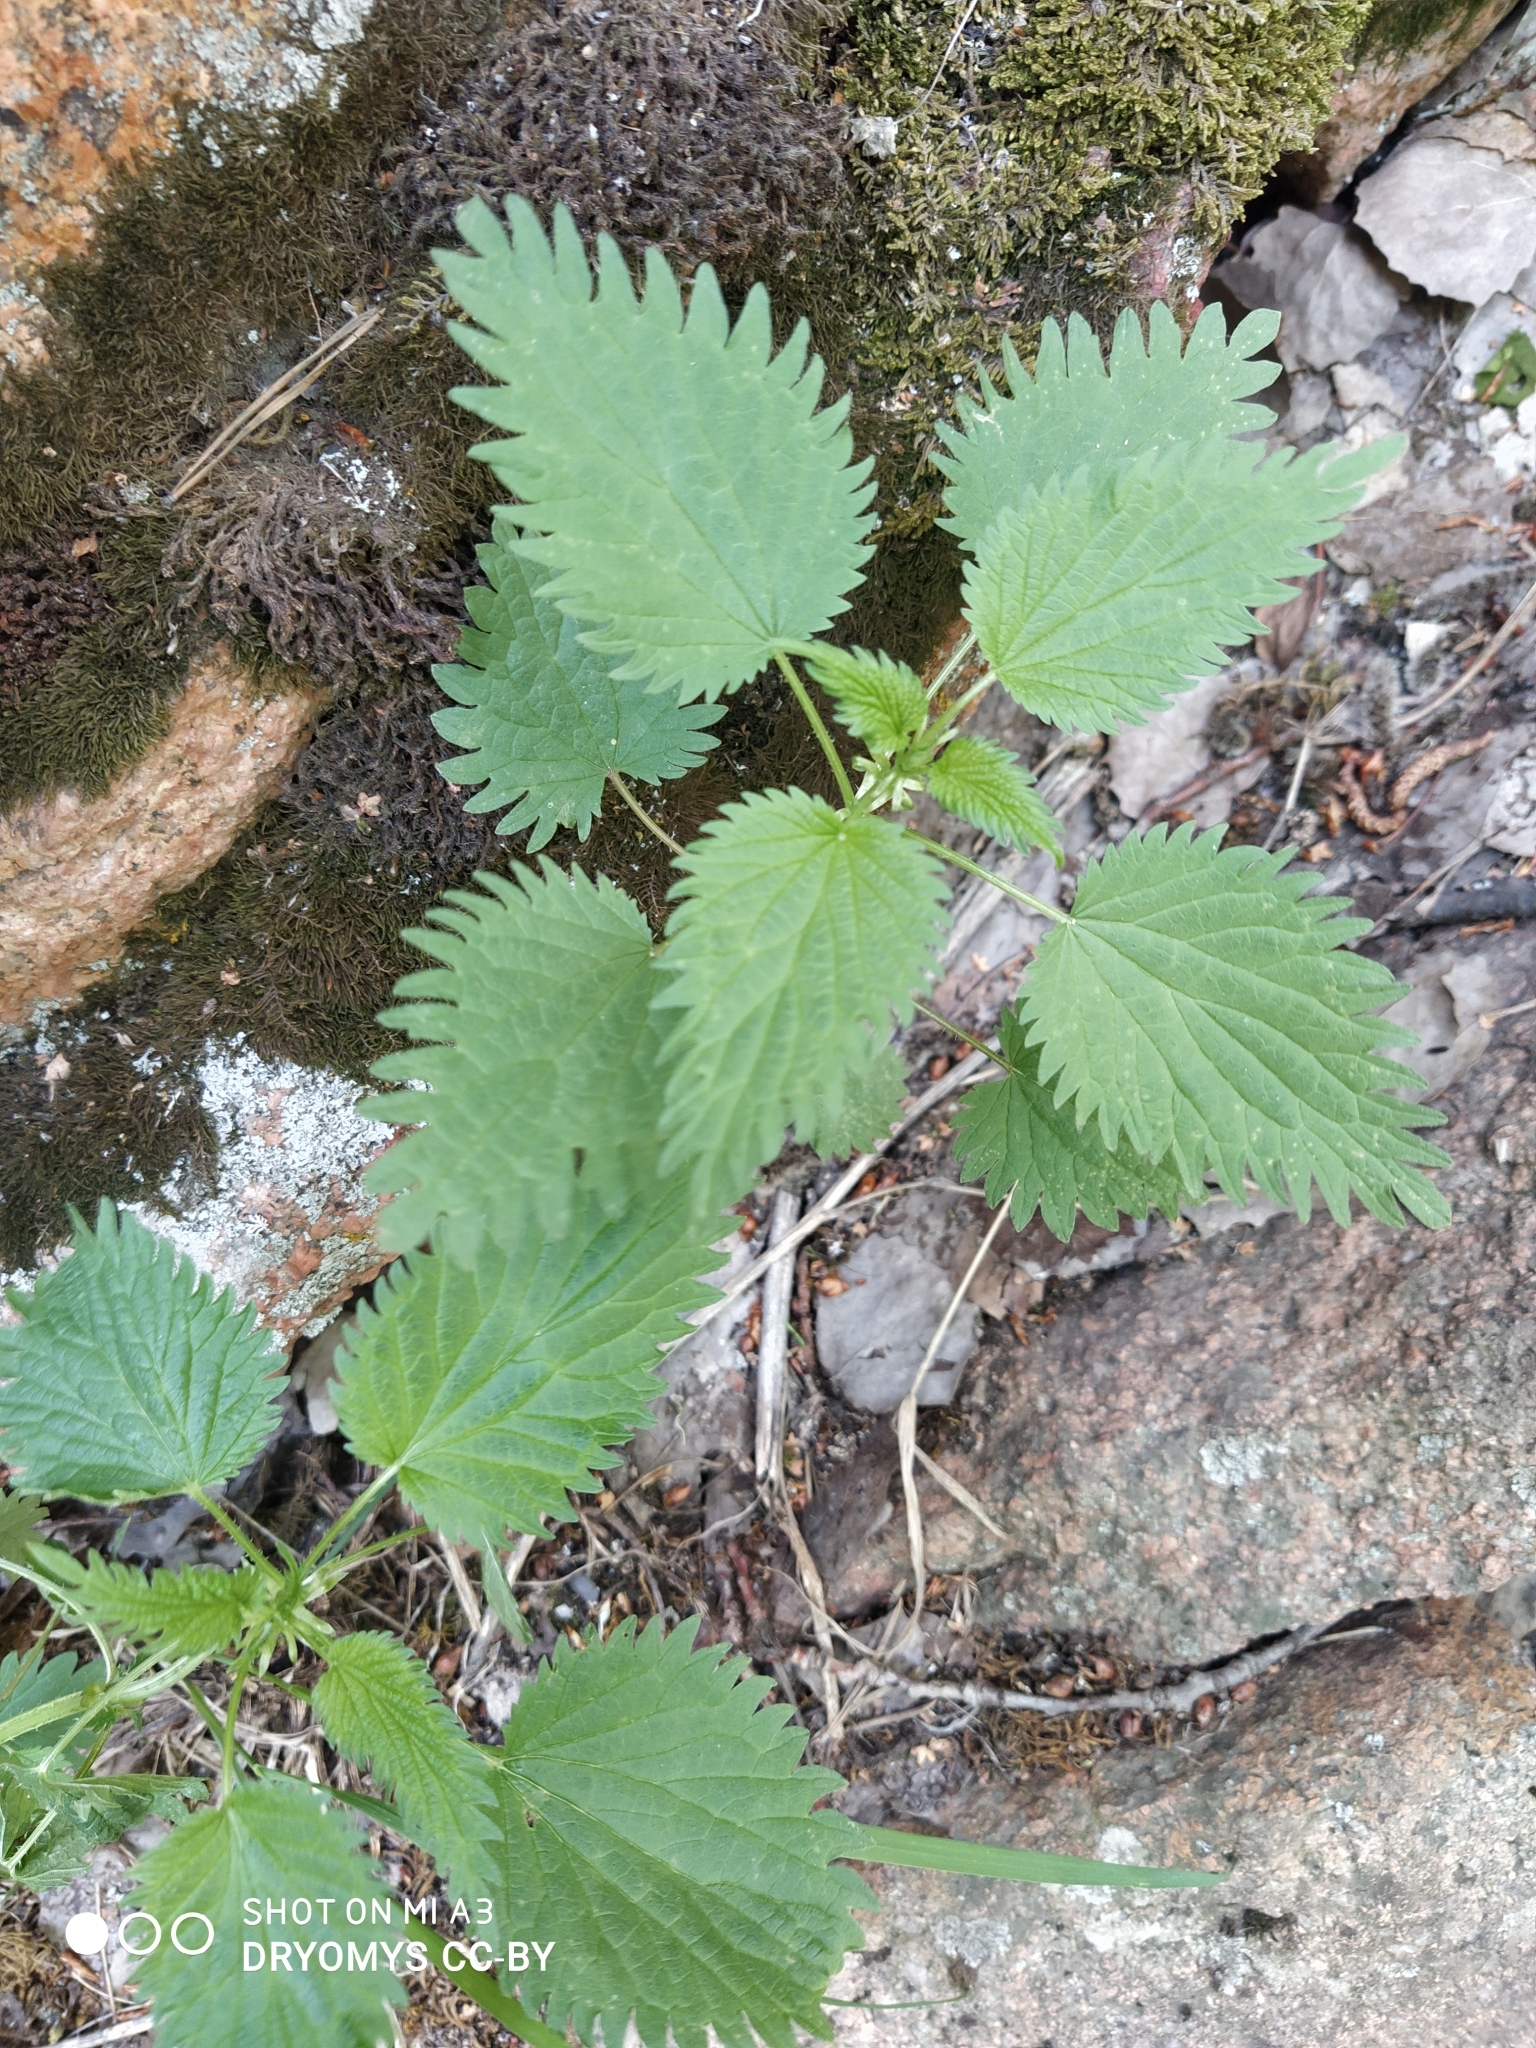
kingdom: Plantae
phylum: Tracheophyta
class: Magnoliopsida
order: Rosales
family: Urticaceae
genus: Urtica
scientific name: Urtica urens
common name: Dwarf nettle
